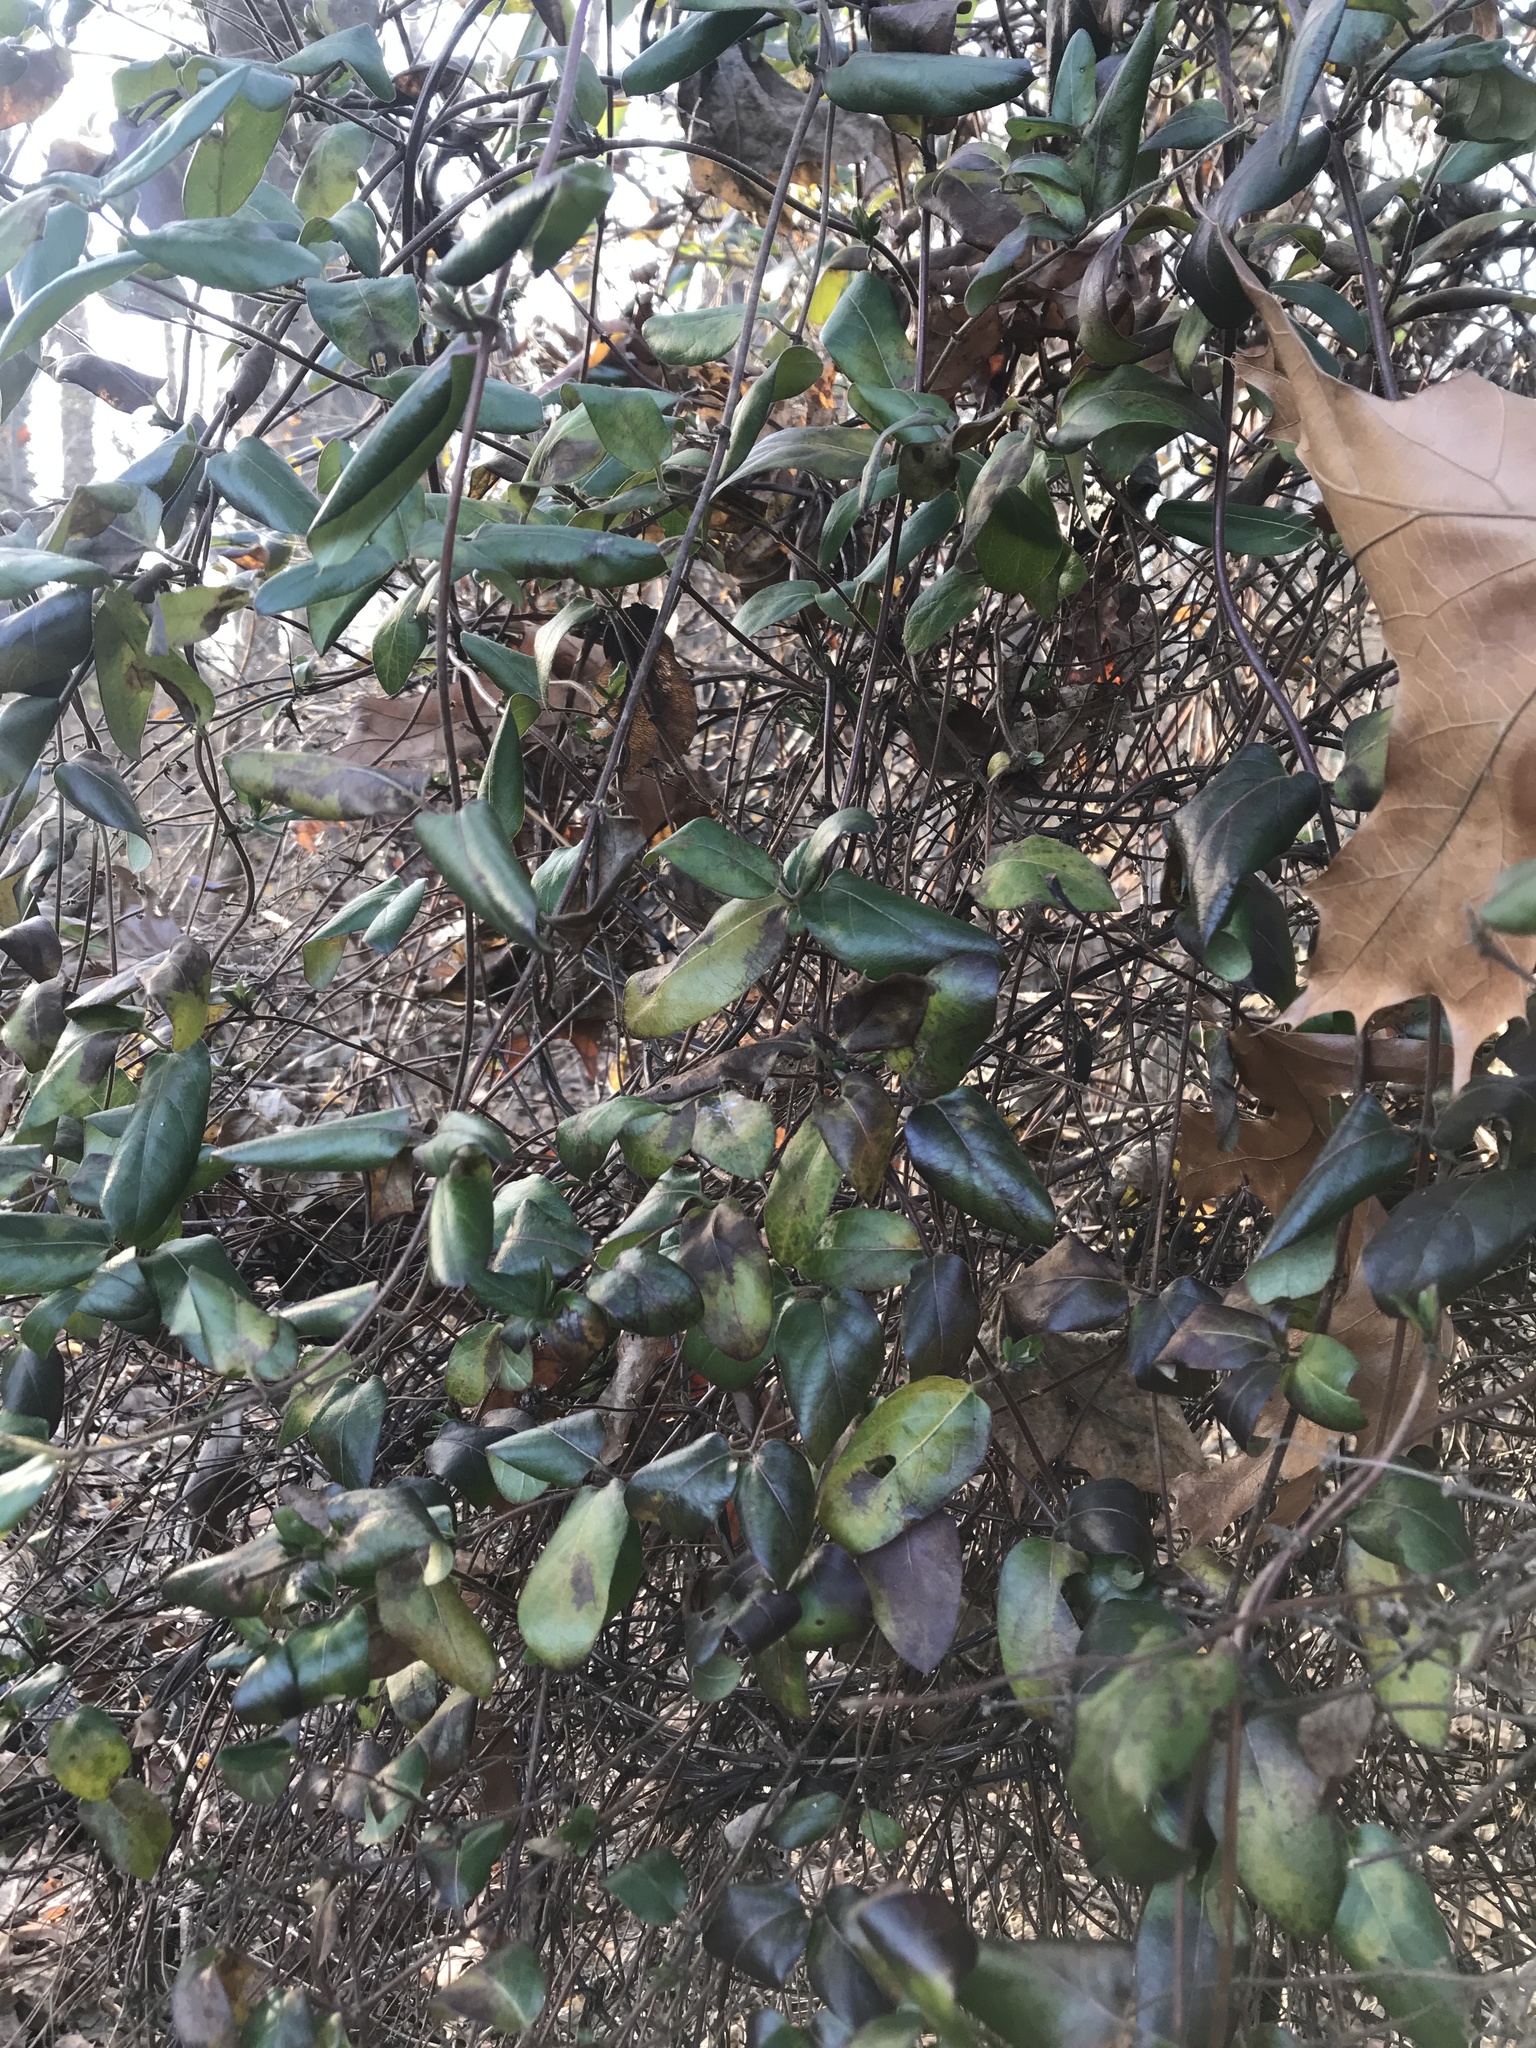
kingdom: Plantae
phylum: Tracheophyta
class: Magnoliopsida
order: Dipsacales
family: Caprifoliaceae
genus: Lonicera
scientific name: Lonicera japonica
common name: Japanese honeysuckle
